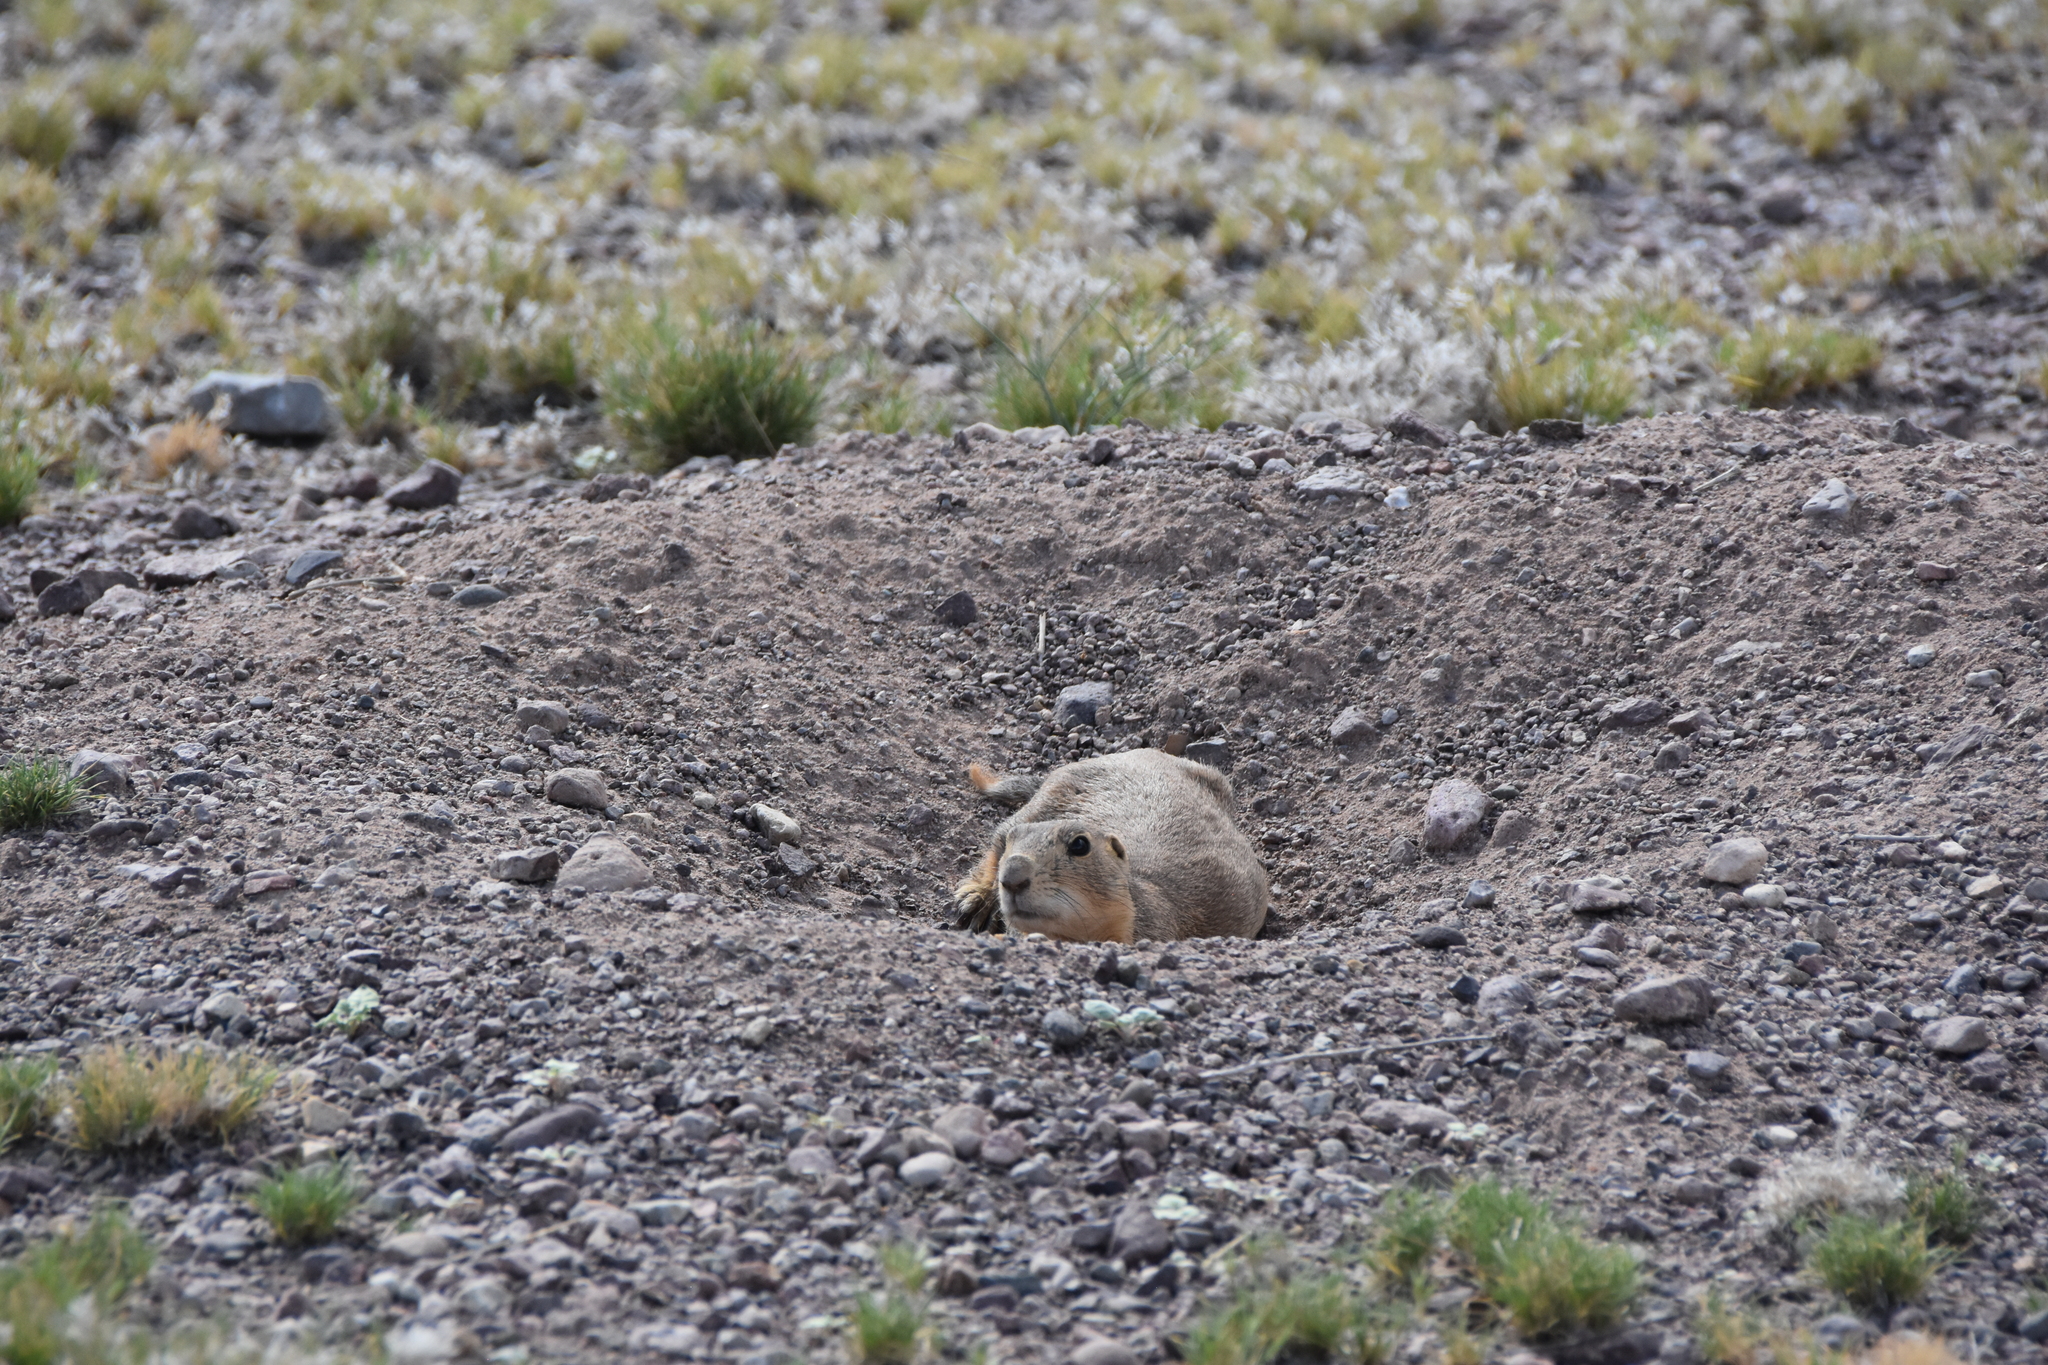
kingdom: Animalia
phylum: Chordata
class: Mammalia
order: Rodentia
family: Sciuridae
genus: Cynomys
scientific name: Cynomys gunnisoni
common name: Gunnison's prairie dog
